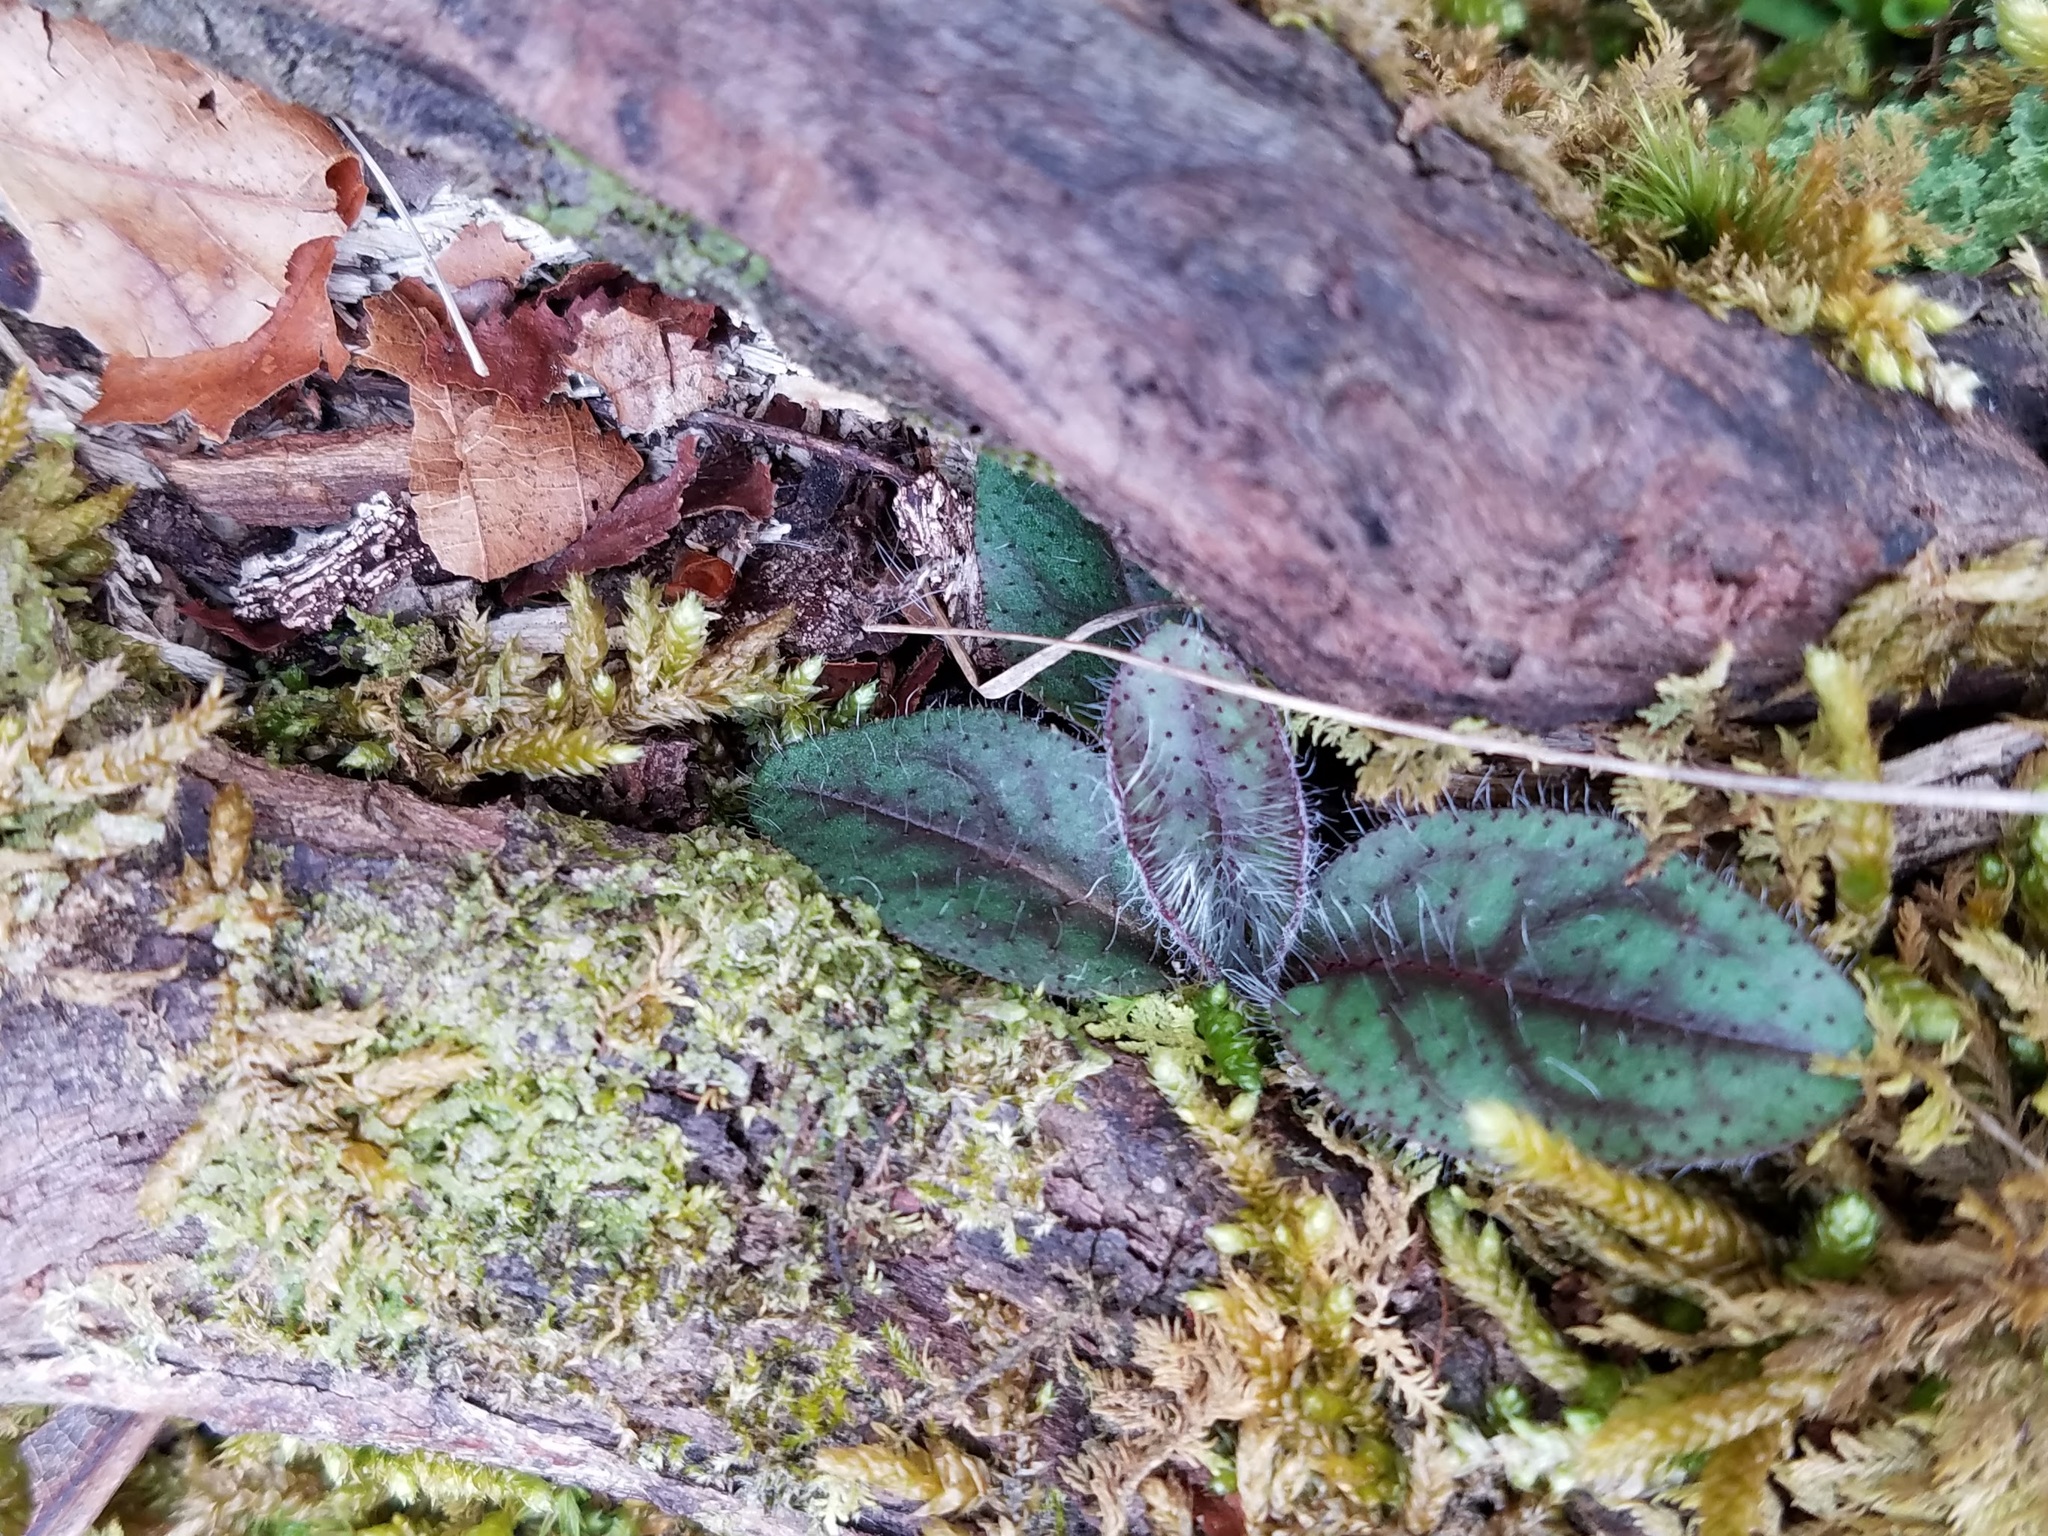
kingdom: Plantae
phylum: Tracheophyta
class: Magnoliopsida
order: Asterales
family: Asteraceae
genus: Hieracium
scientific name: Hieracium venosum
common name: Rattlesnake hawkweed
